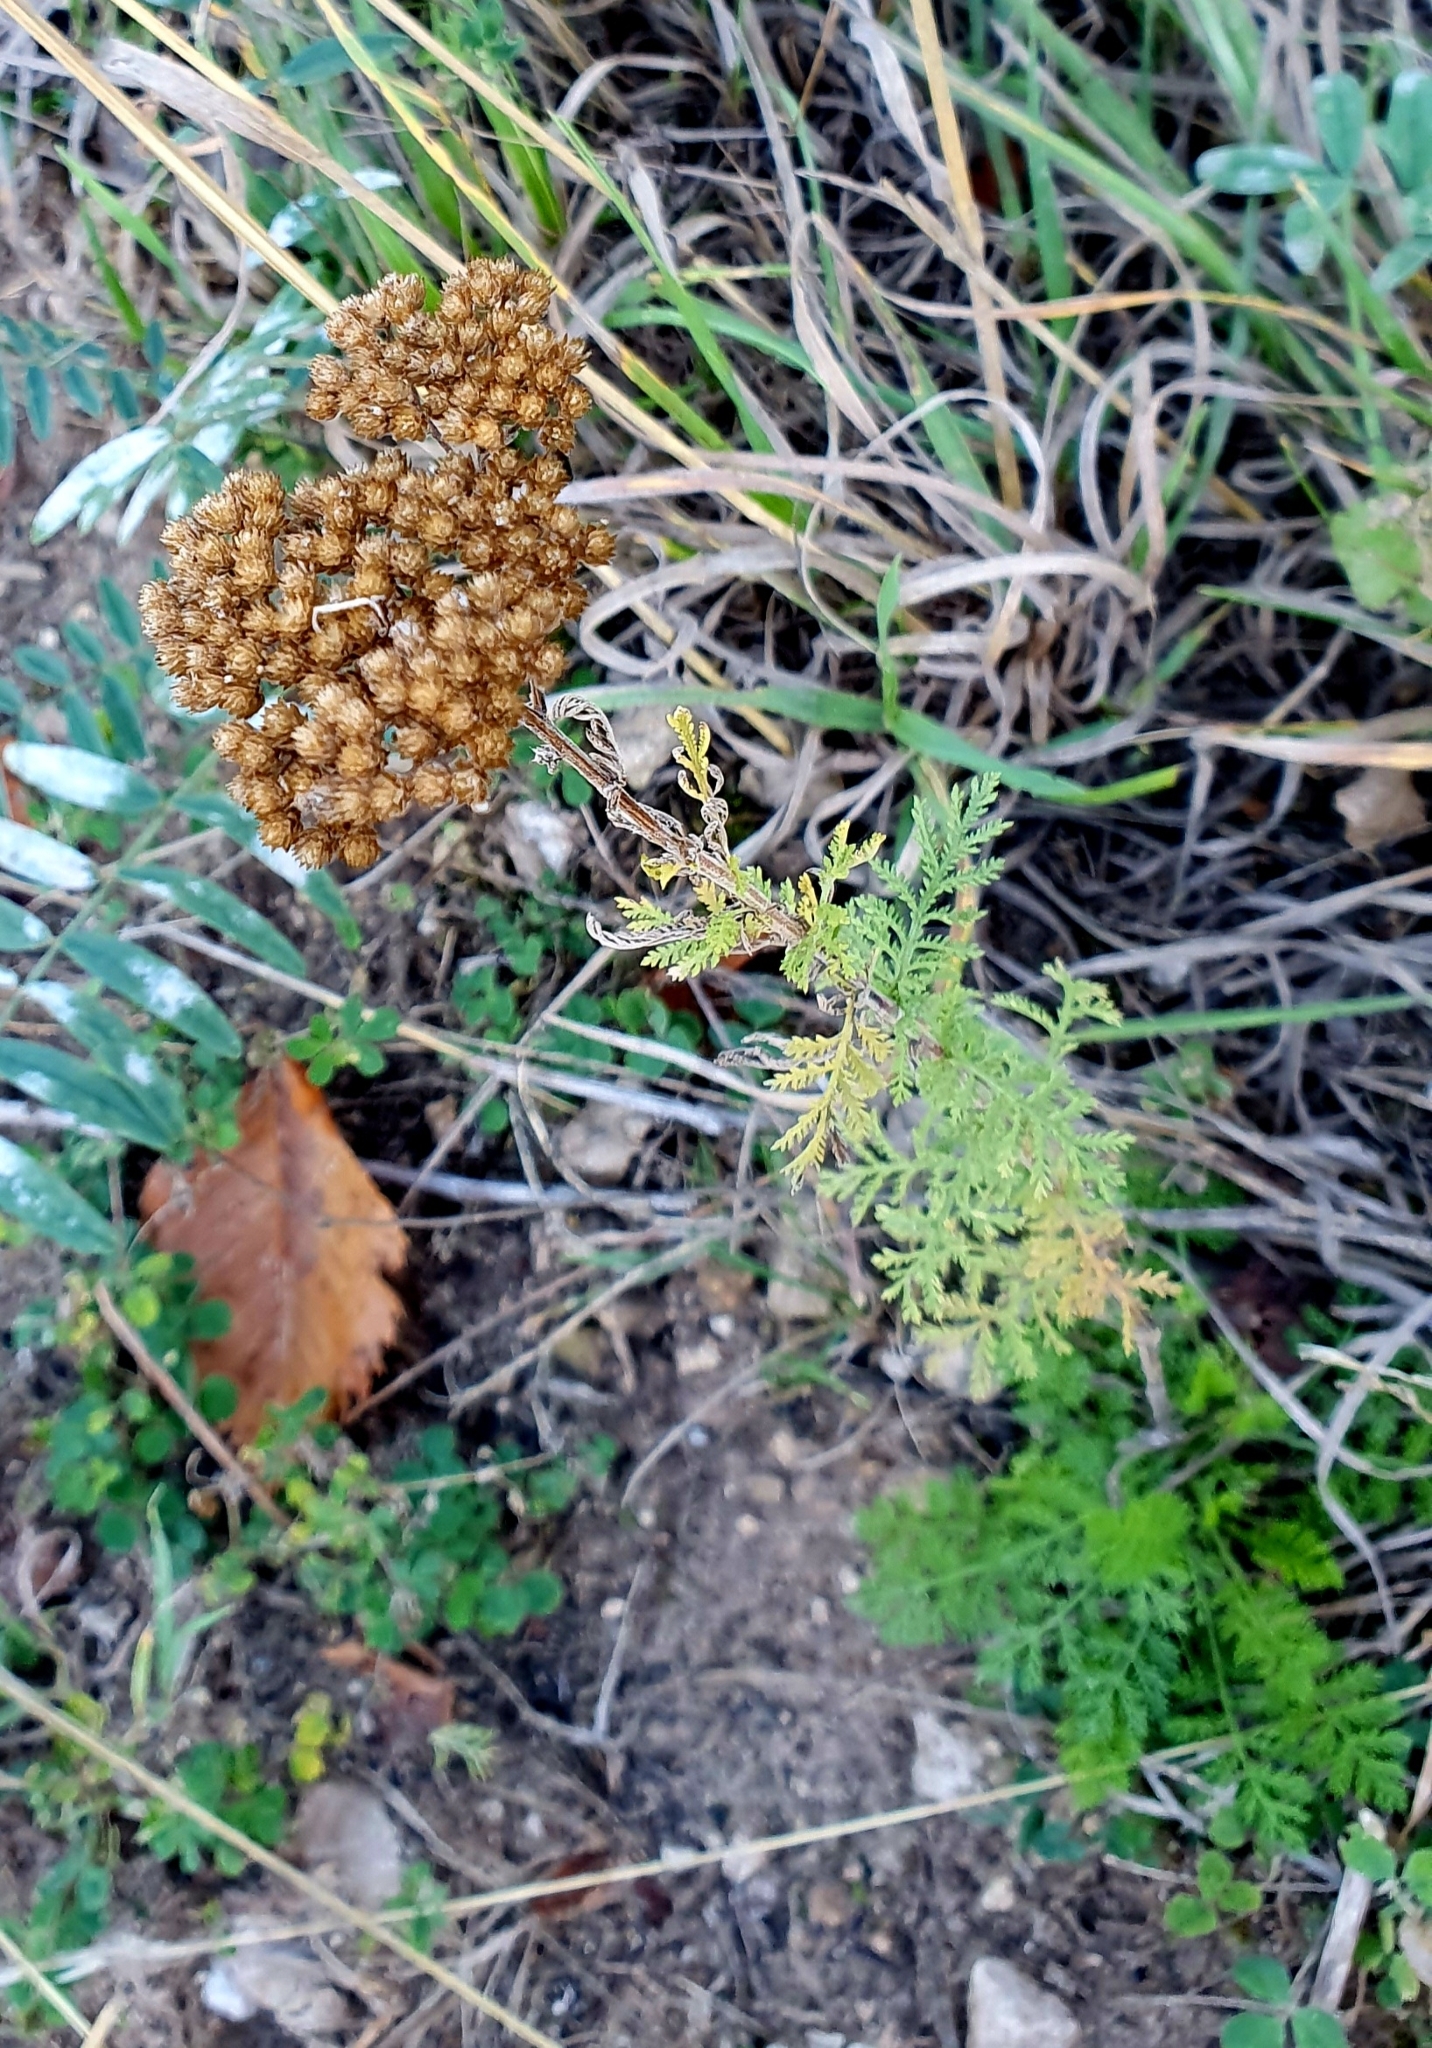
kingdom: Plantae
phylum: Tracheophyta
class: Magnoliopsida
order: Asterales
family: Asteraceae
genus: Achillea
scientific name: Achillea nobilis
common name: Noble yarrow
